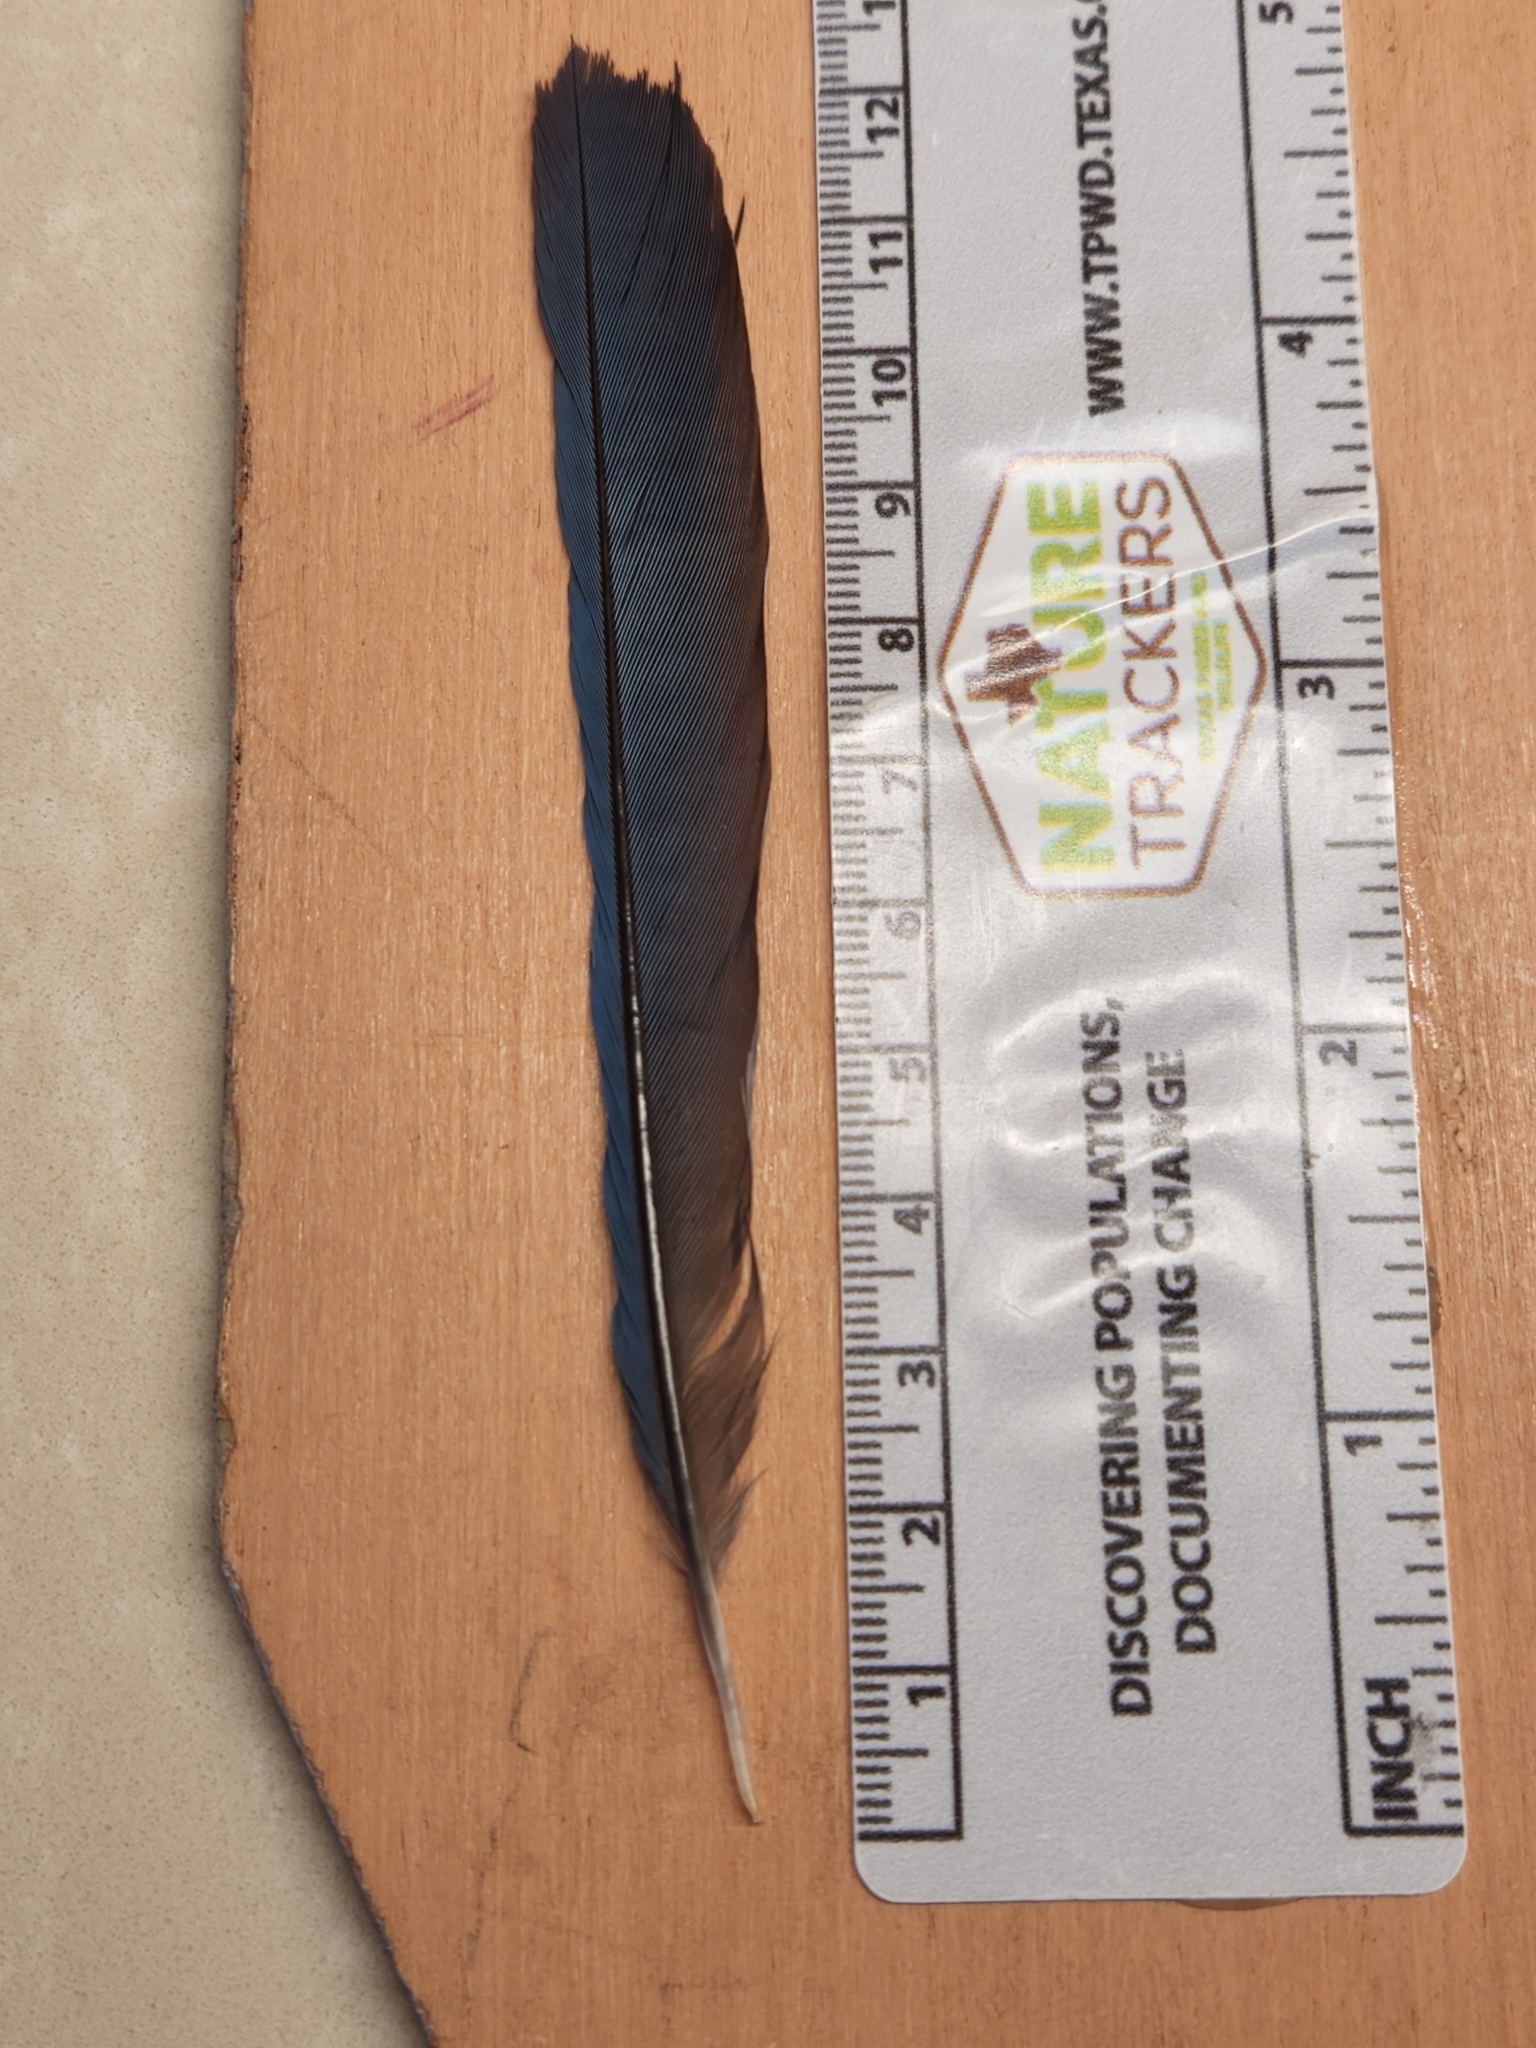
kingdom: Animalia
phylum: Chordata
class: Aves
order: Passeriformes
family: Corvidae
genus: Aphelocoma
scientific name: Aphelocoma woodhouseii
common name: Woodhouse's scrub-jay
